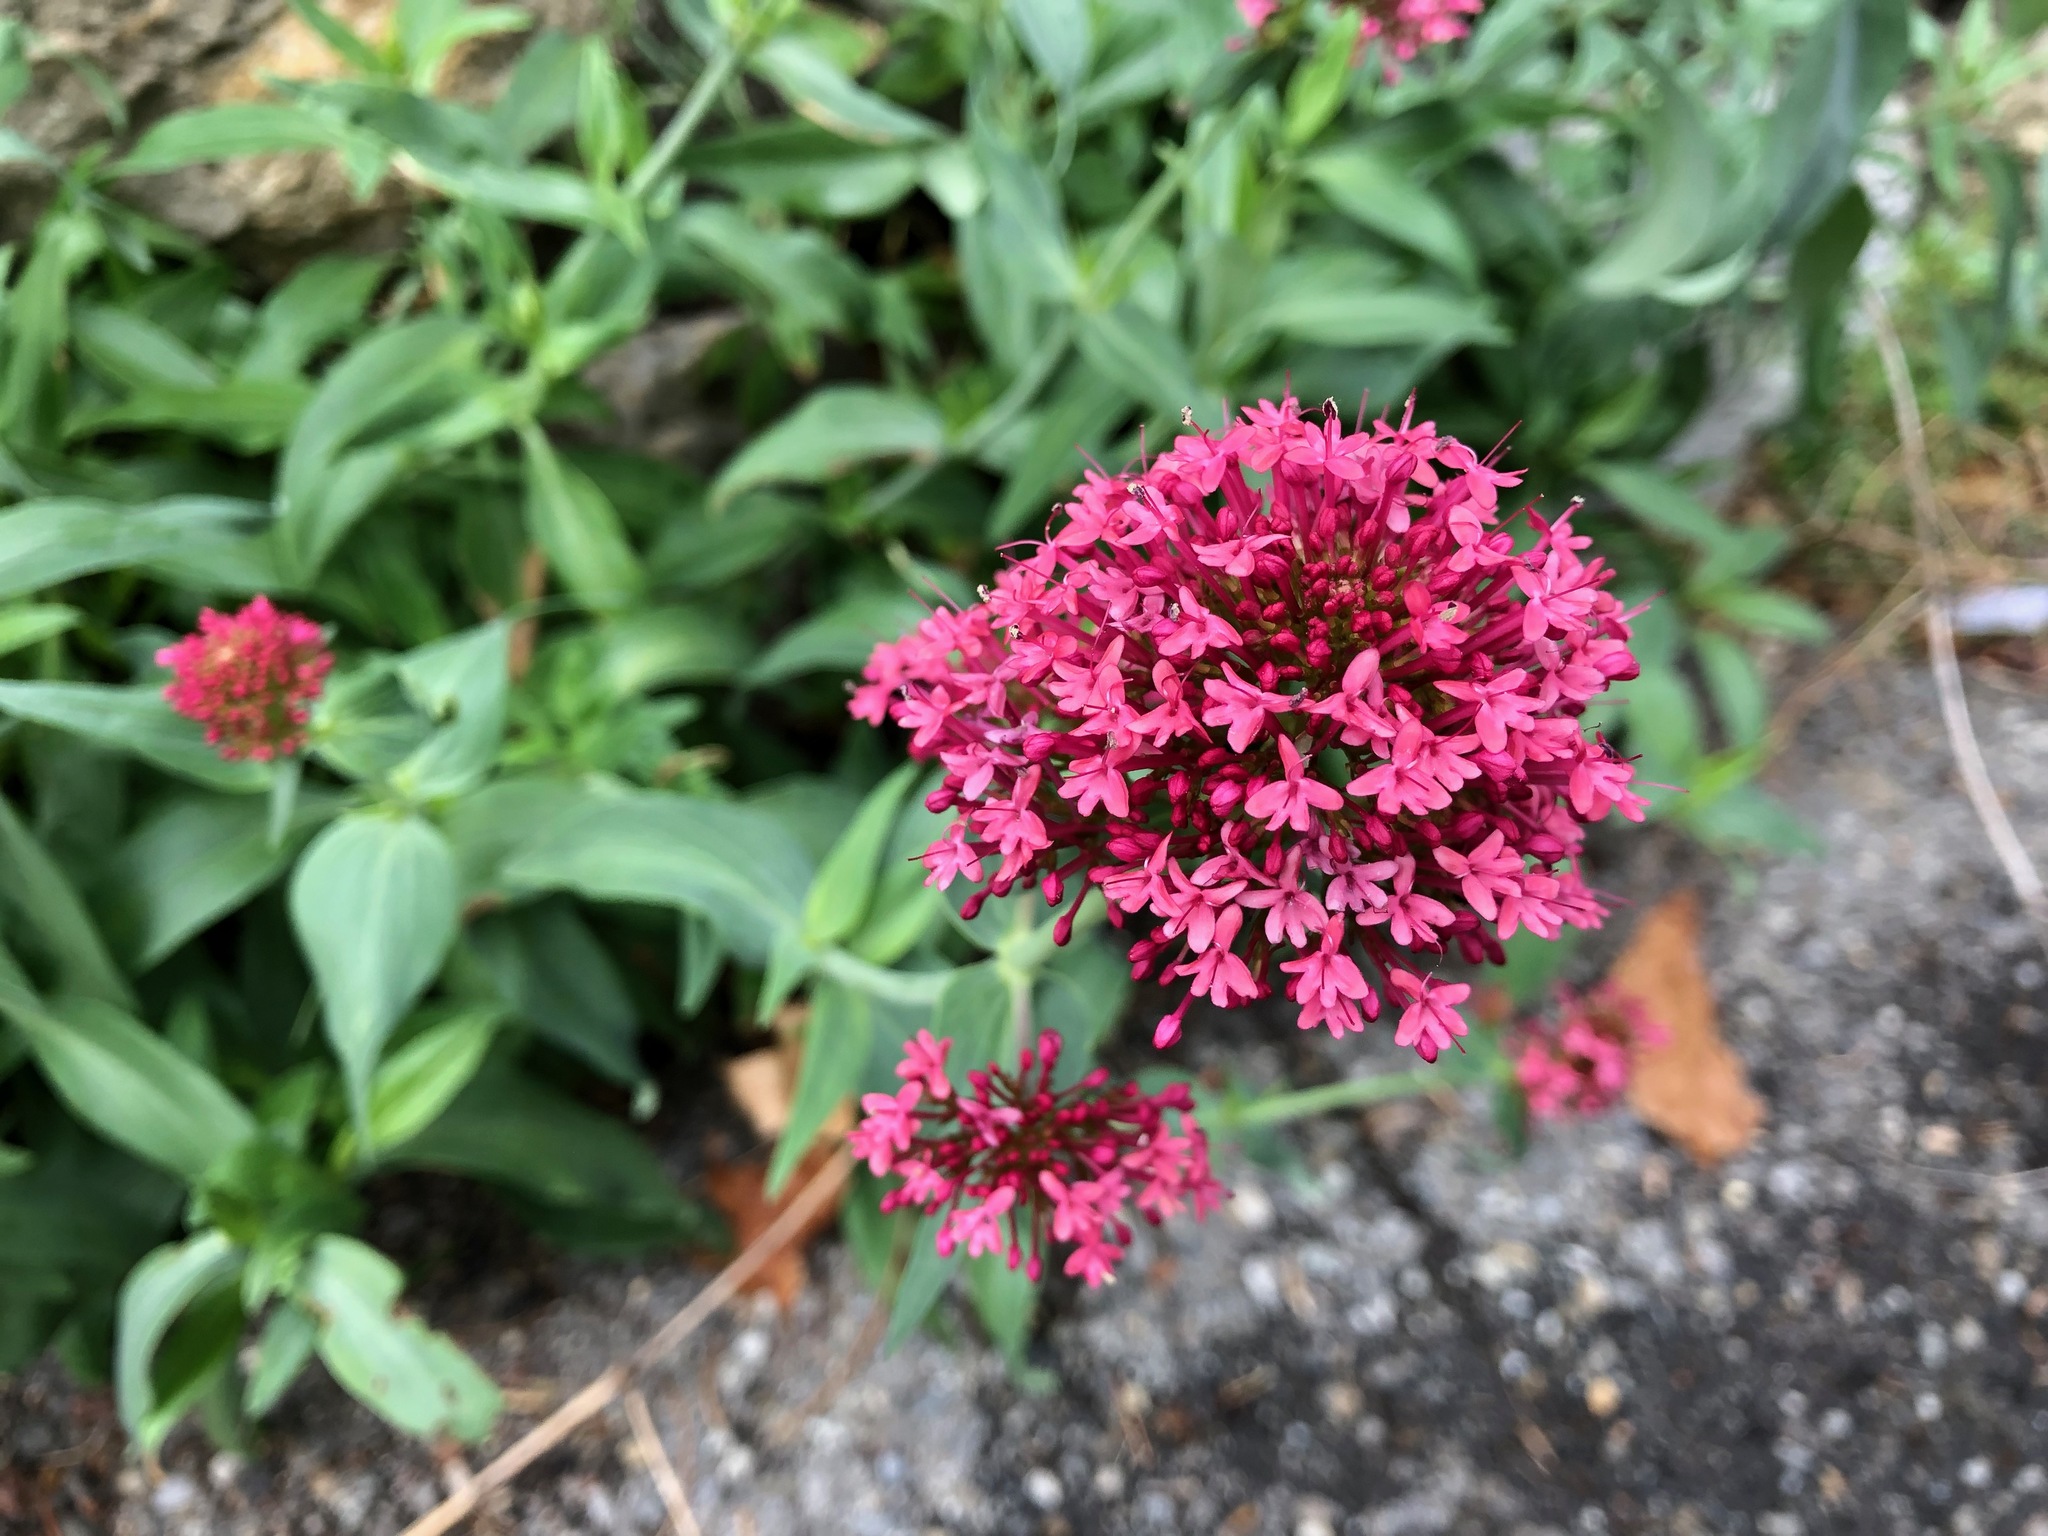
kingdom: Plantae
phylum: Tracheophyta
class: Magnoliopsida
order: Dipsacales
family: Caprifoliaceae
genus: Centranthus
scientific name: Centranthus ruber
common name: Red valerian
